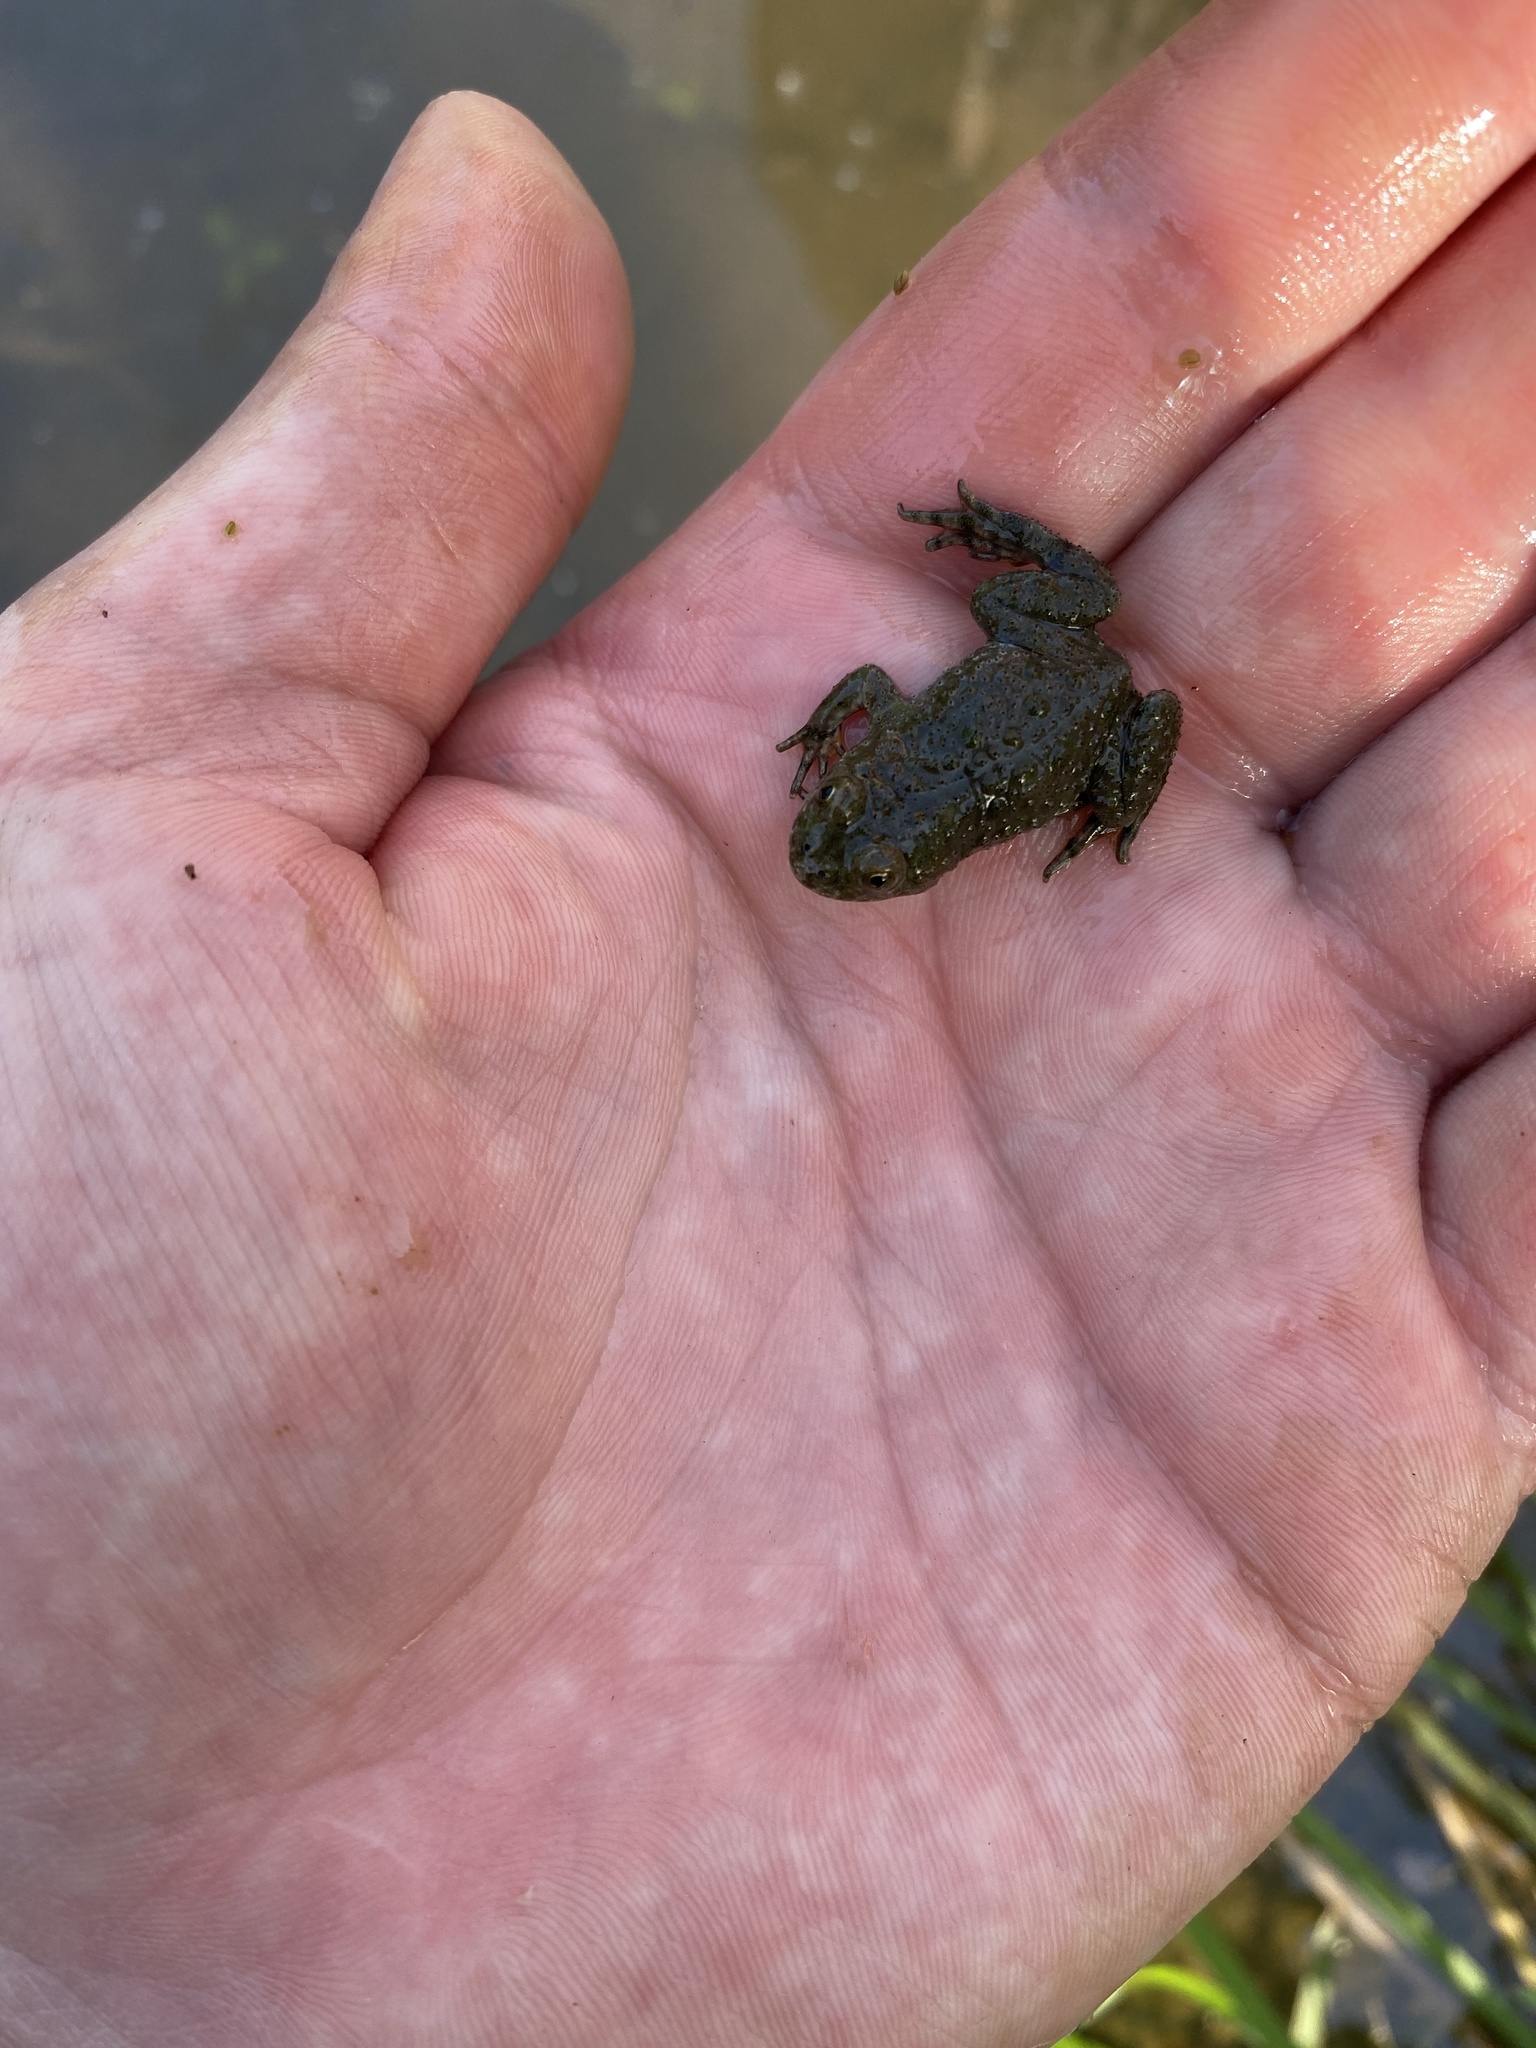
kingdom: Animalia
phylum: Chordata
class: Amphibia
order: Anura
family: Bombinatoridae
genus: Bombina
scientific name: Bombina bombina
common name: Fire-bellied toad
